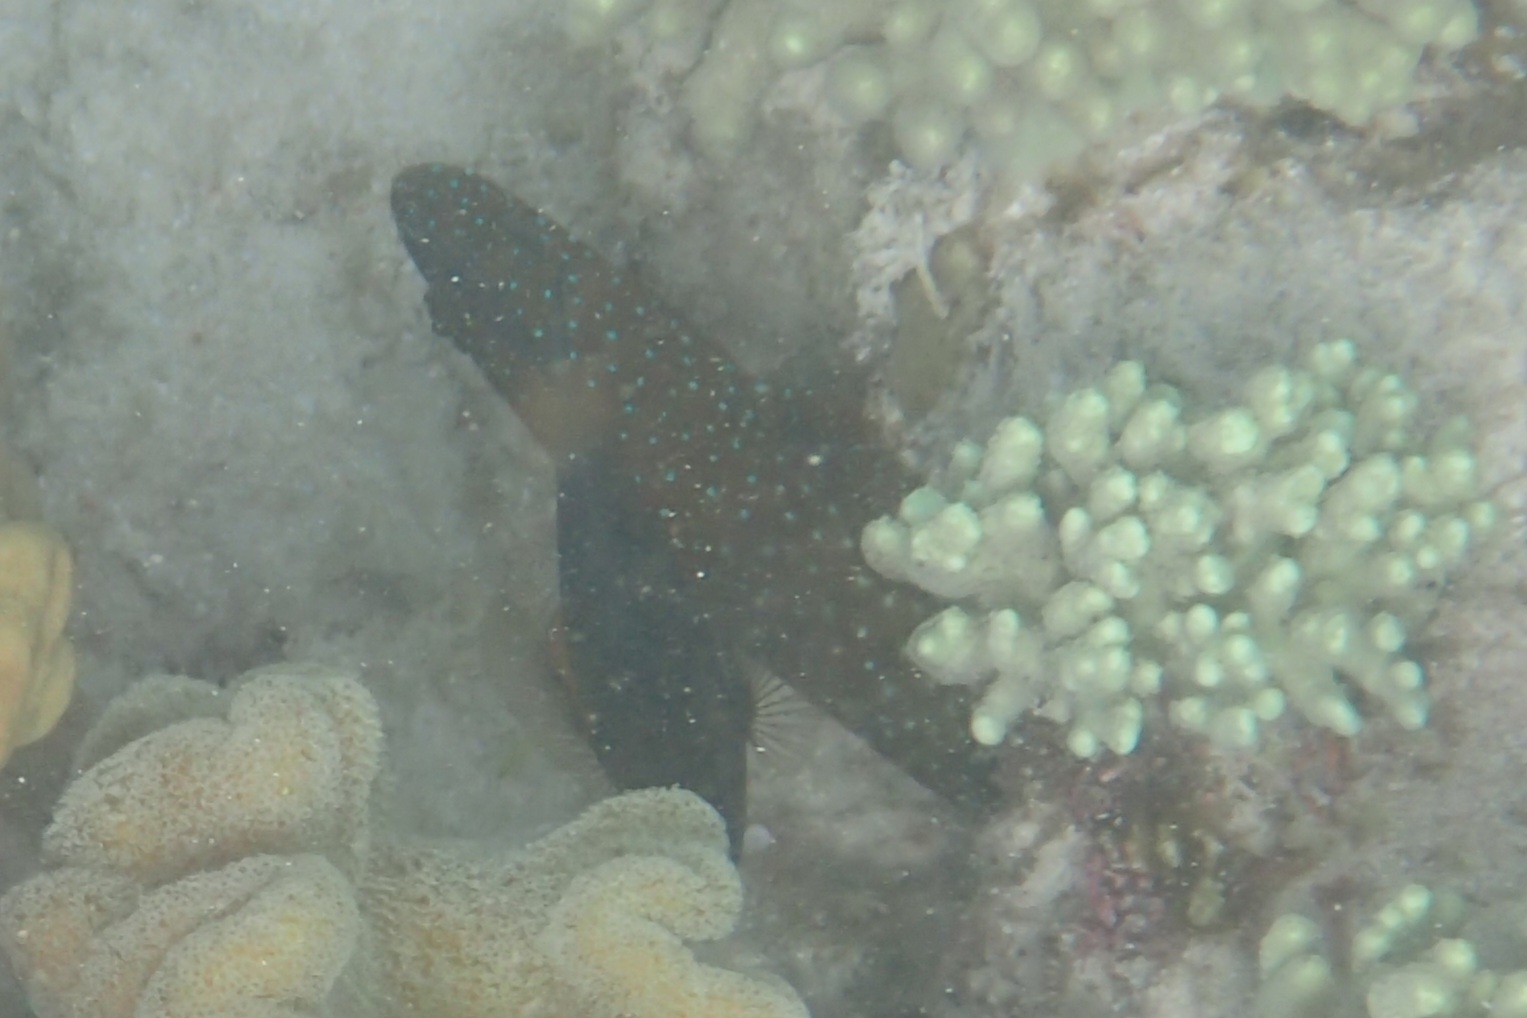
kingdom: Animalia
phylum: Chordata
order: Perciformes
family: Serranidae
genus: Cephalopholis
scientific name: Cephalopholis cyanostigma
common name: Bluespotted hind
